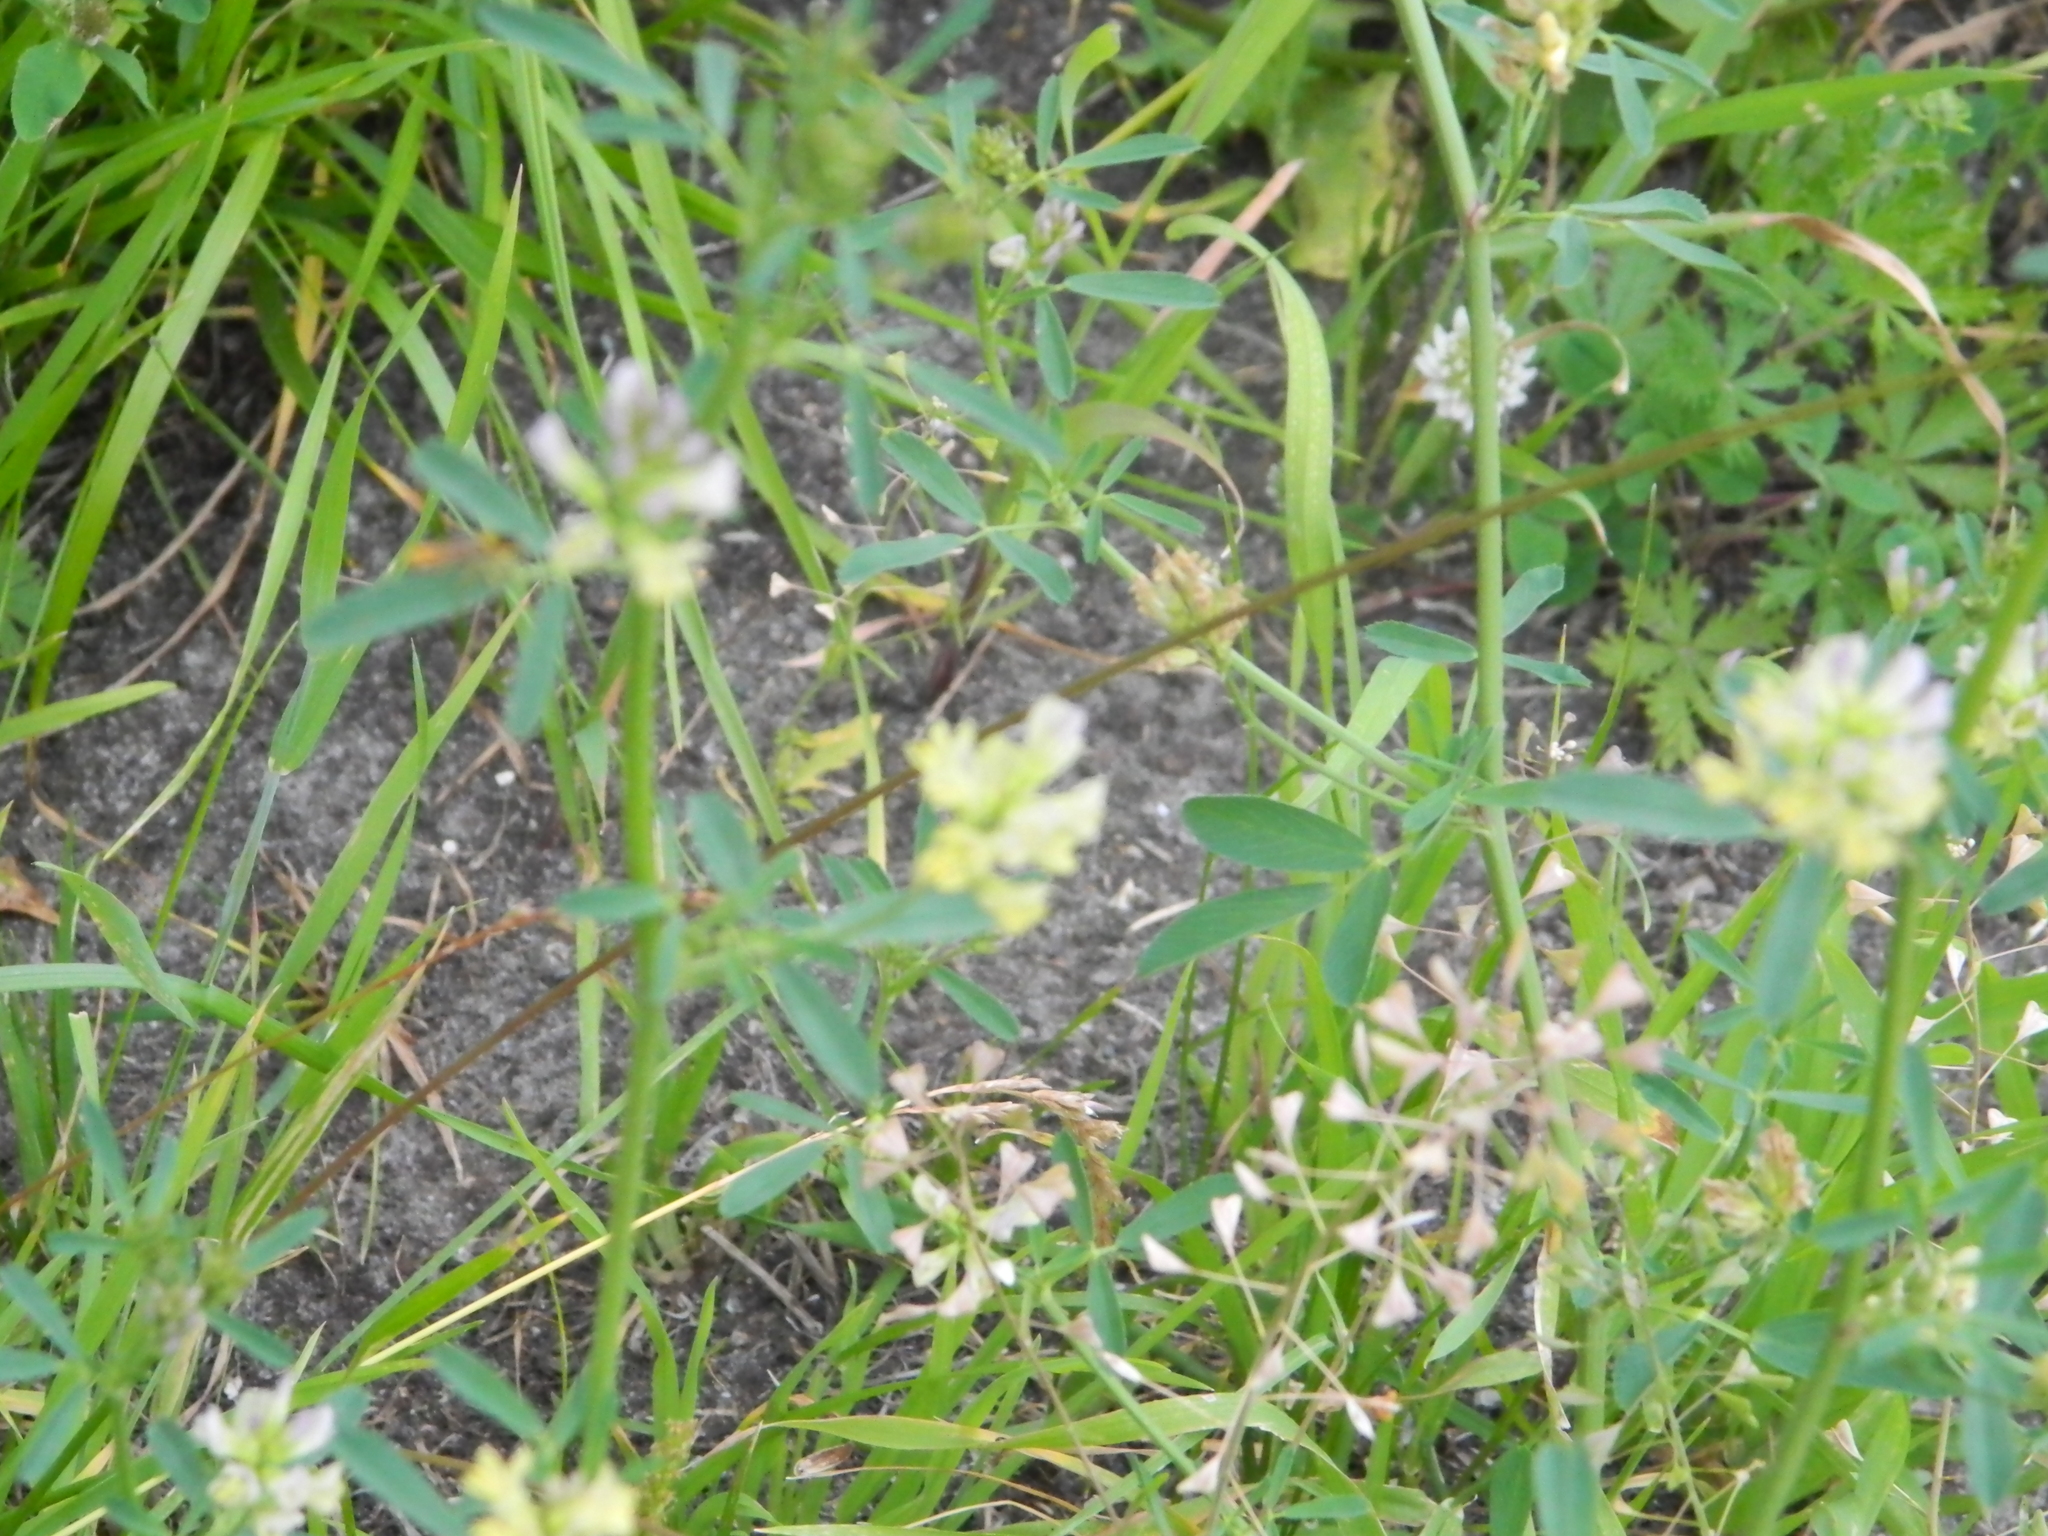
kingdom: Plantae
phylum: Tracheophyta
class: Magnoliopsida
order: Fabales
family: Fabaceae
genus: Medicago
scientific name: Medicago varia
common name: Sand lucerne
